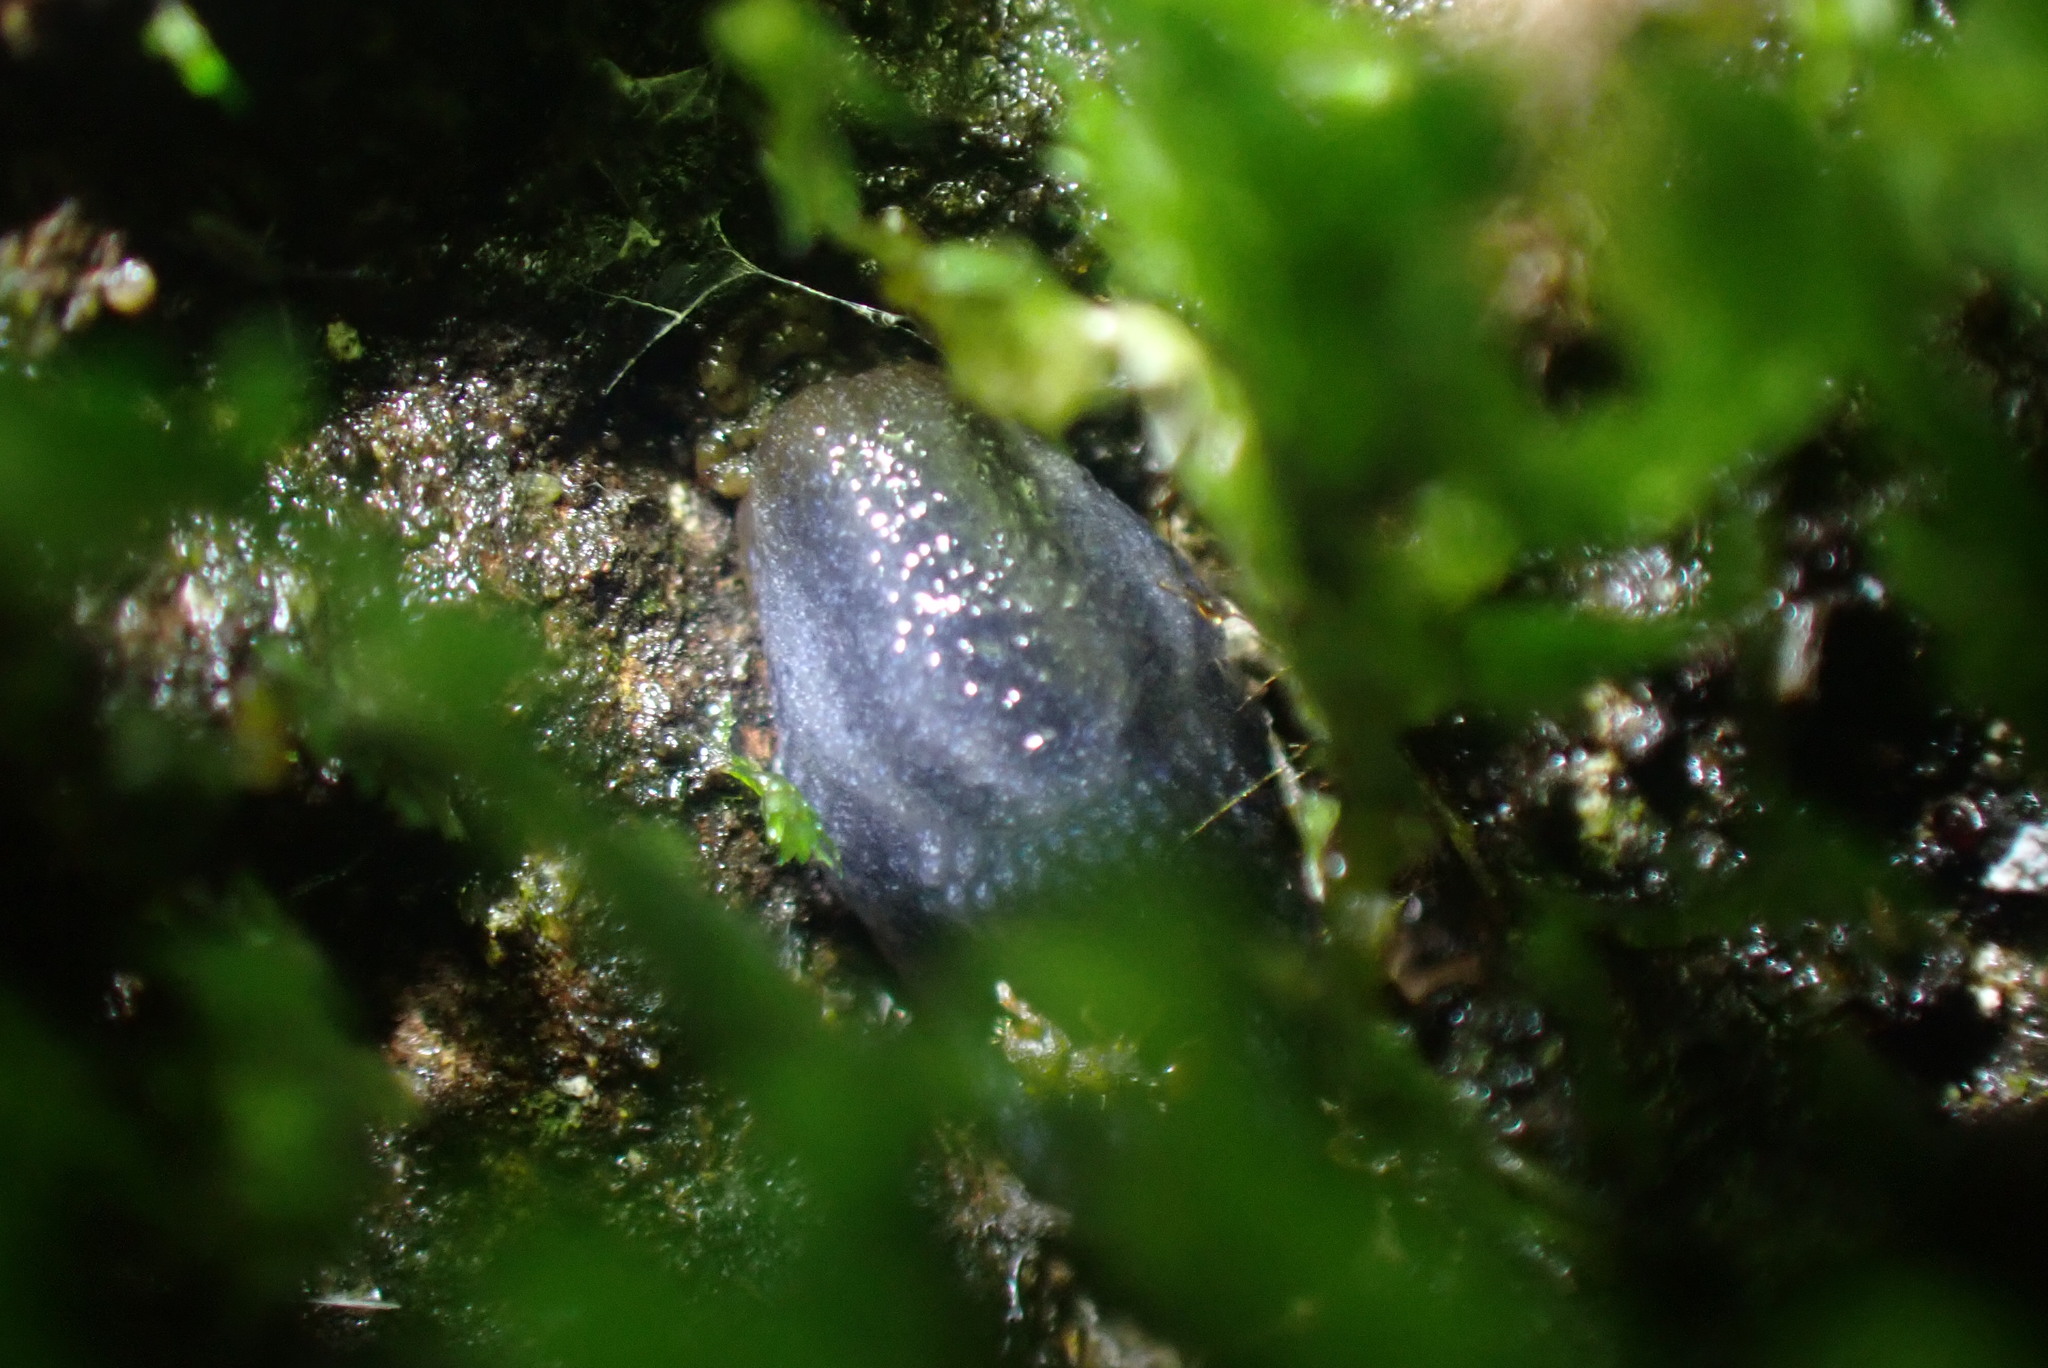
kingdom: Animalia
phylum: Mollusca
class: Gastropoda
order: Stylommatophora
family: Arionidae
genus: Kobeltia
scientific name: Kobeltia
